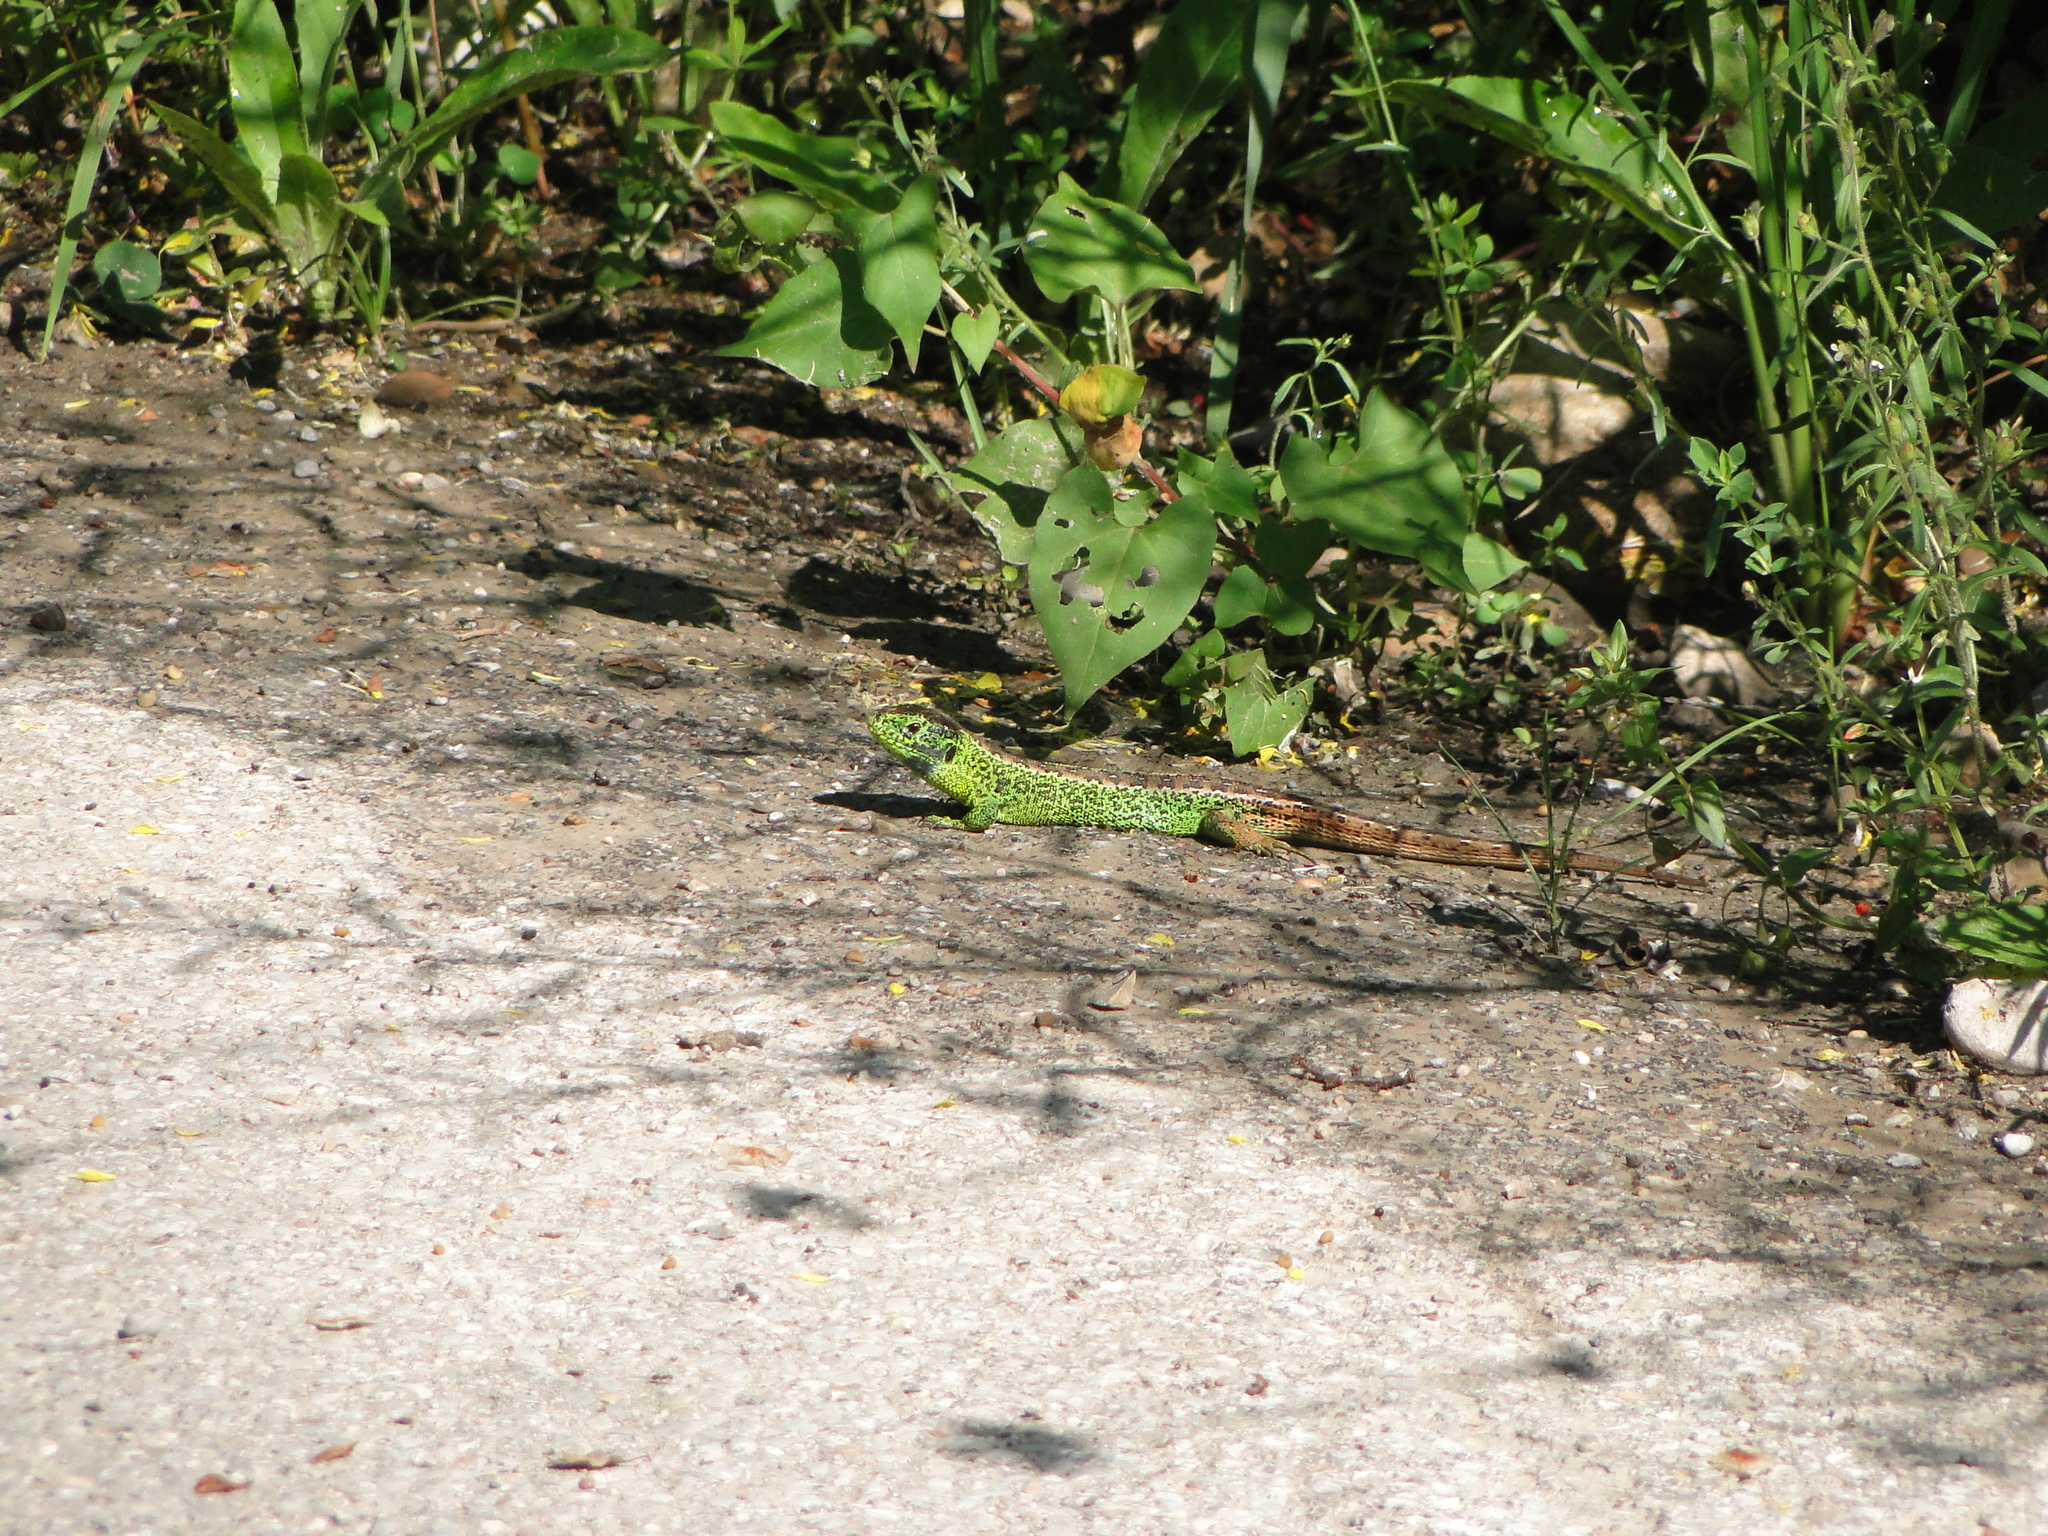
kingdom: Animalia
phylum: Chordata
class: Squamata
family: Lacertidae
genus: Lacerta
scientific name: Lacerta agilis
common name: Sand lizard
